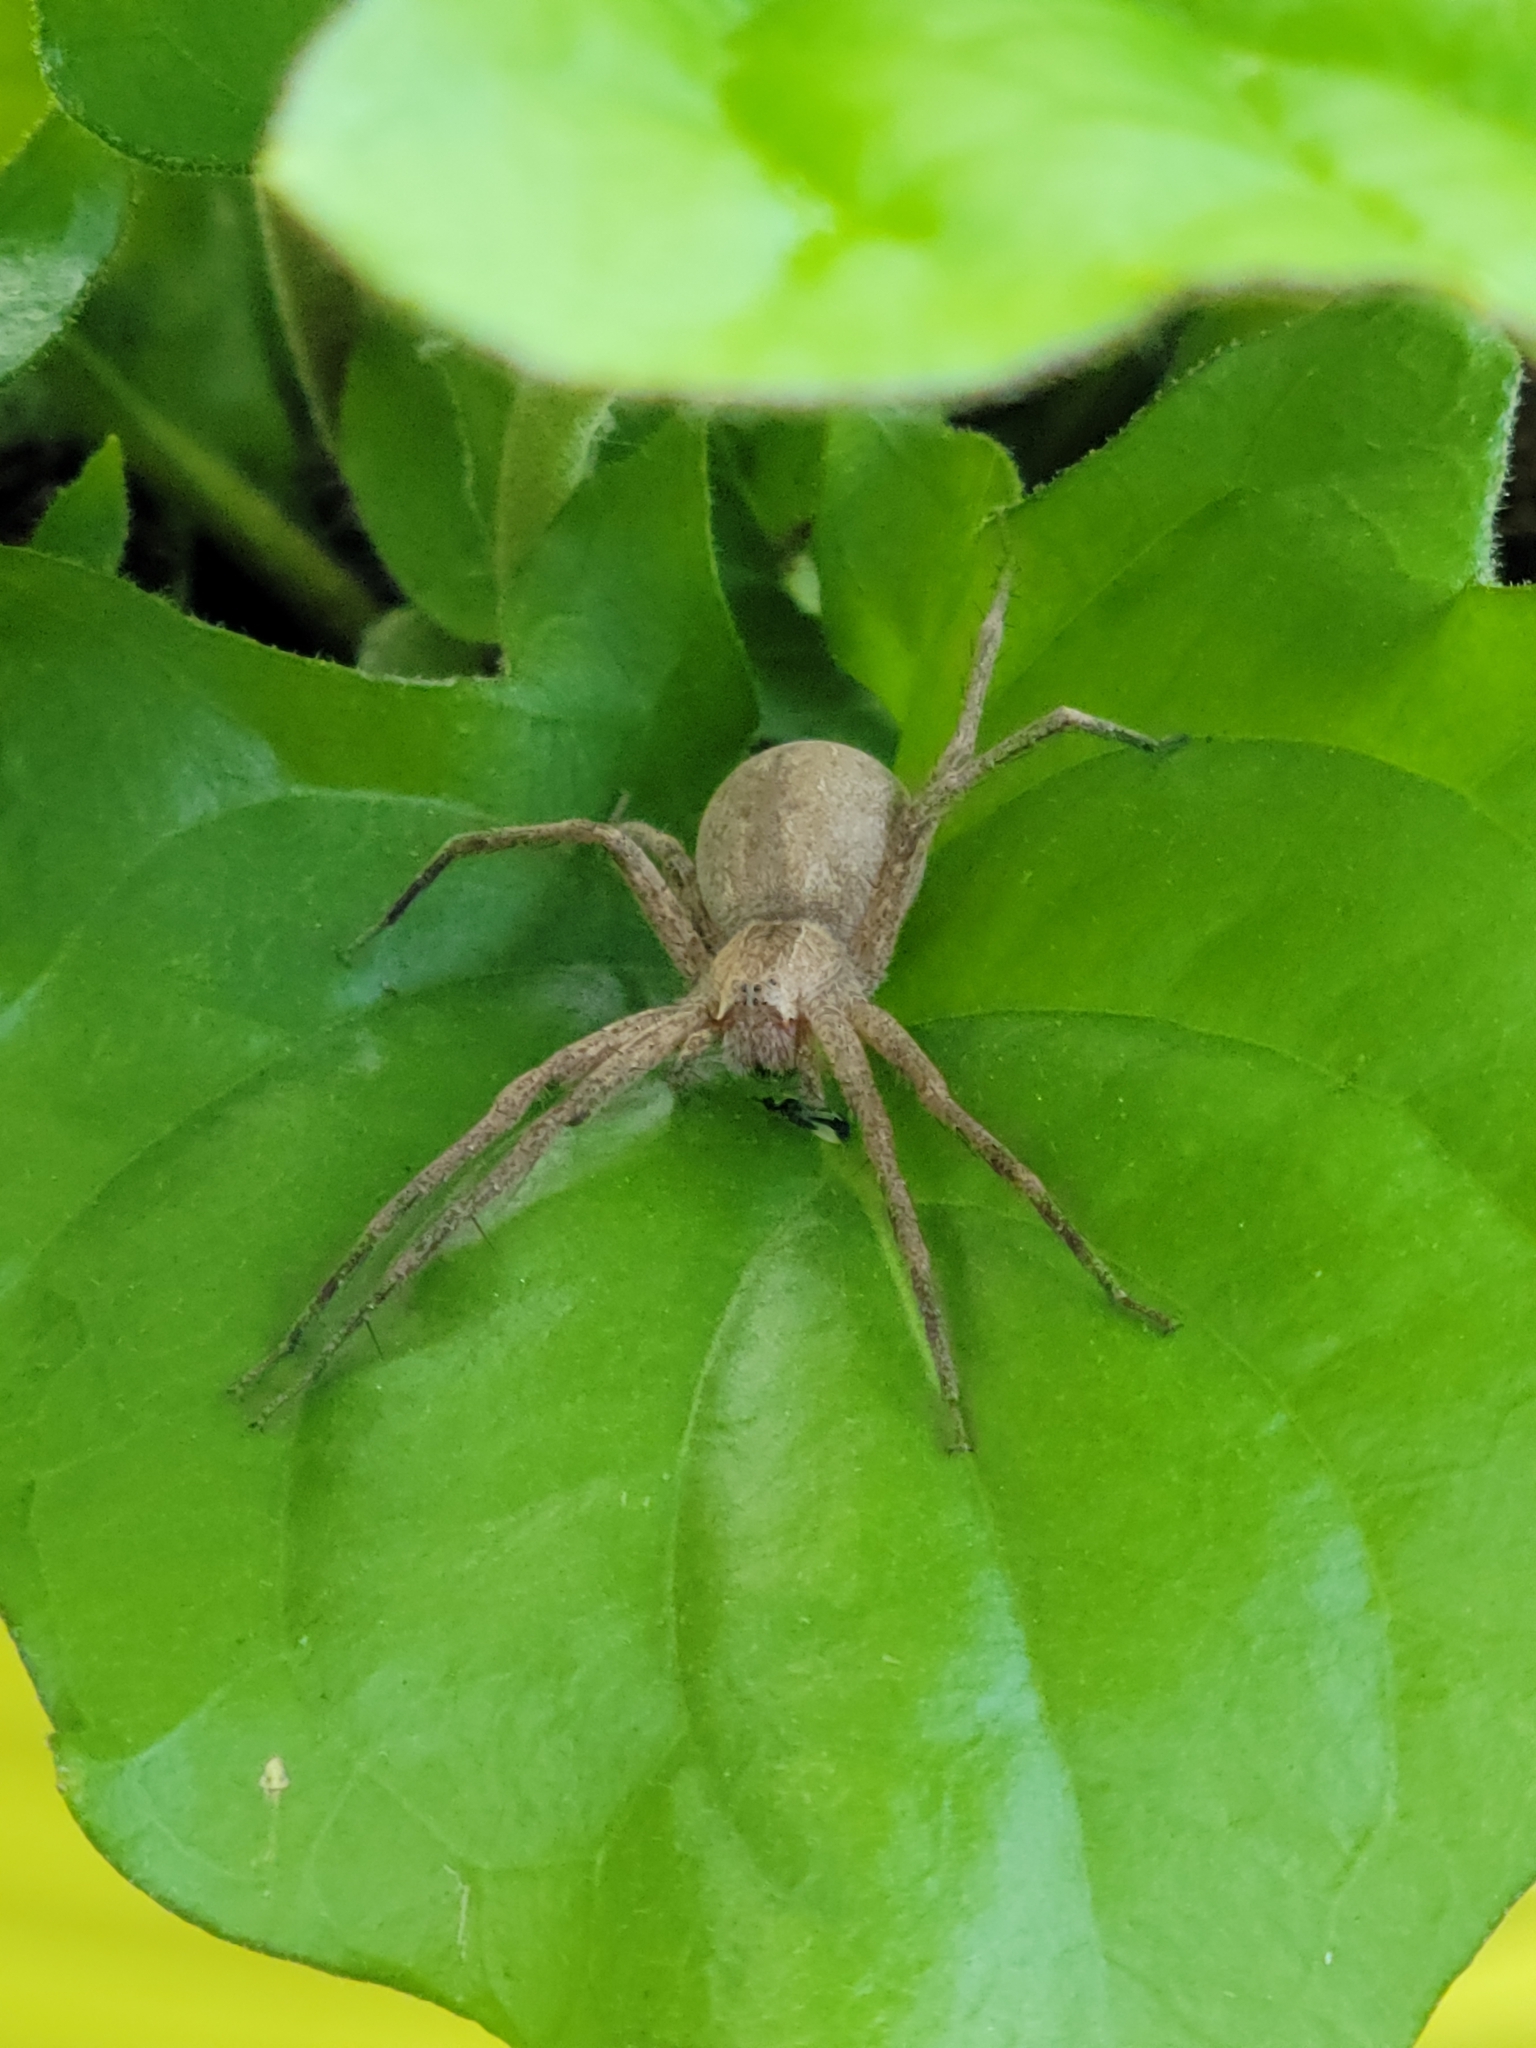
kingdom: Animalia
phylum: Arthropoda
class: Arachnida
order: Araneae
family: Pisauridae
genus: Pisaurina
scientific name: Pisaurina mira
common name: American nursery web spider
